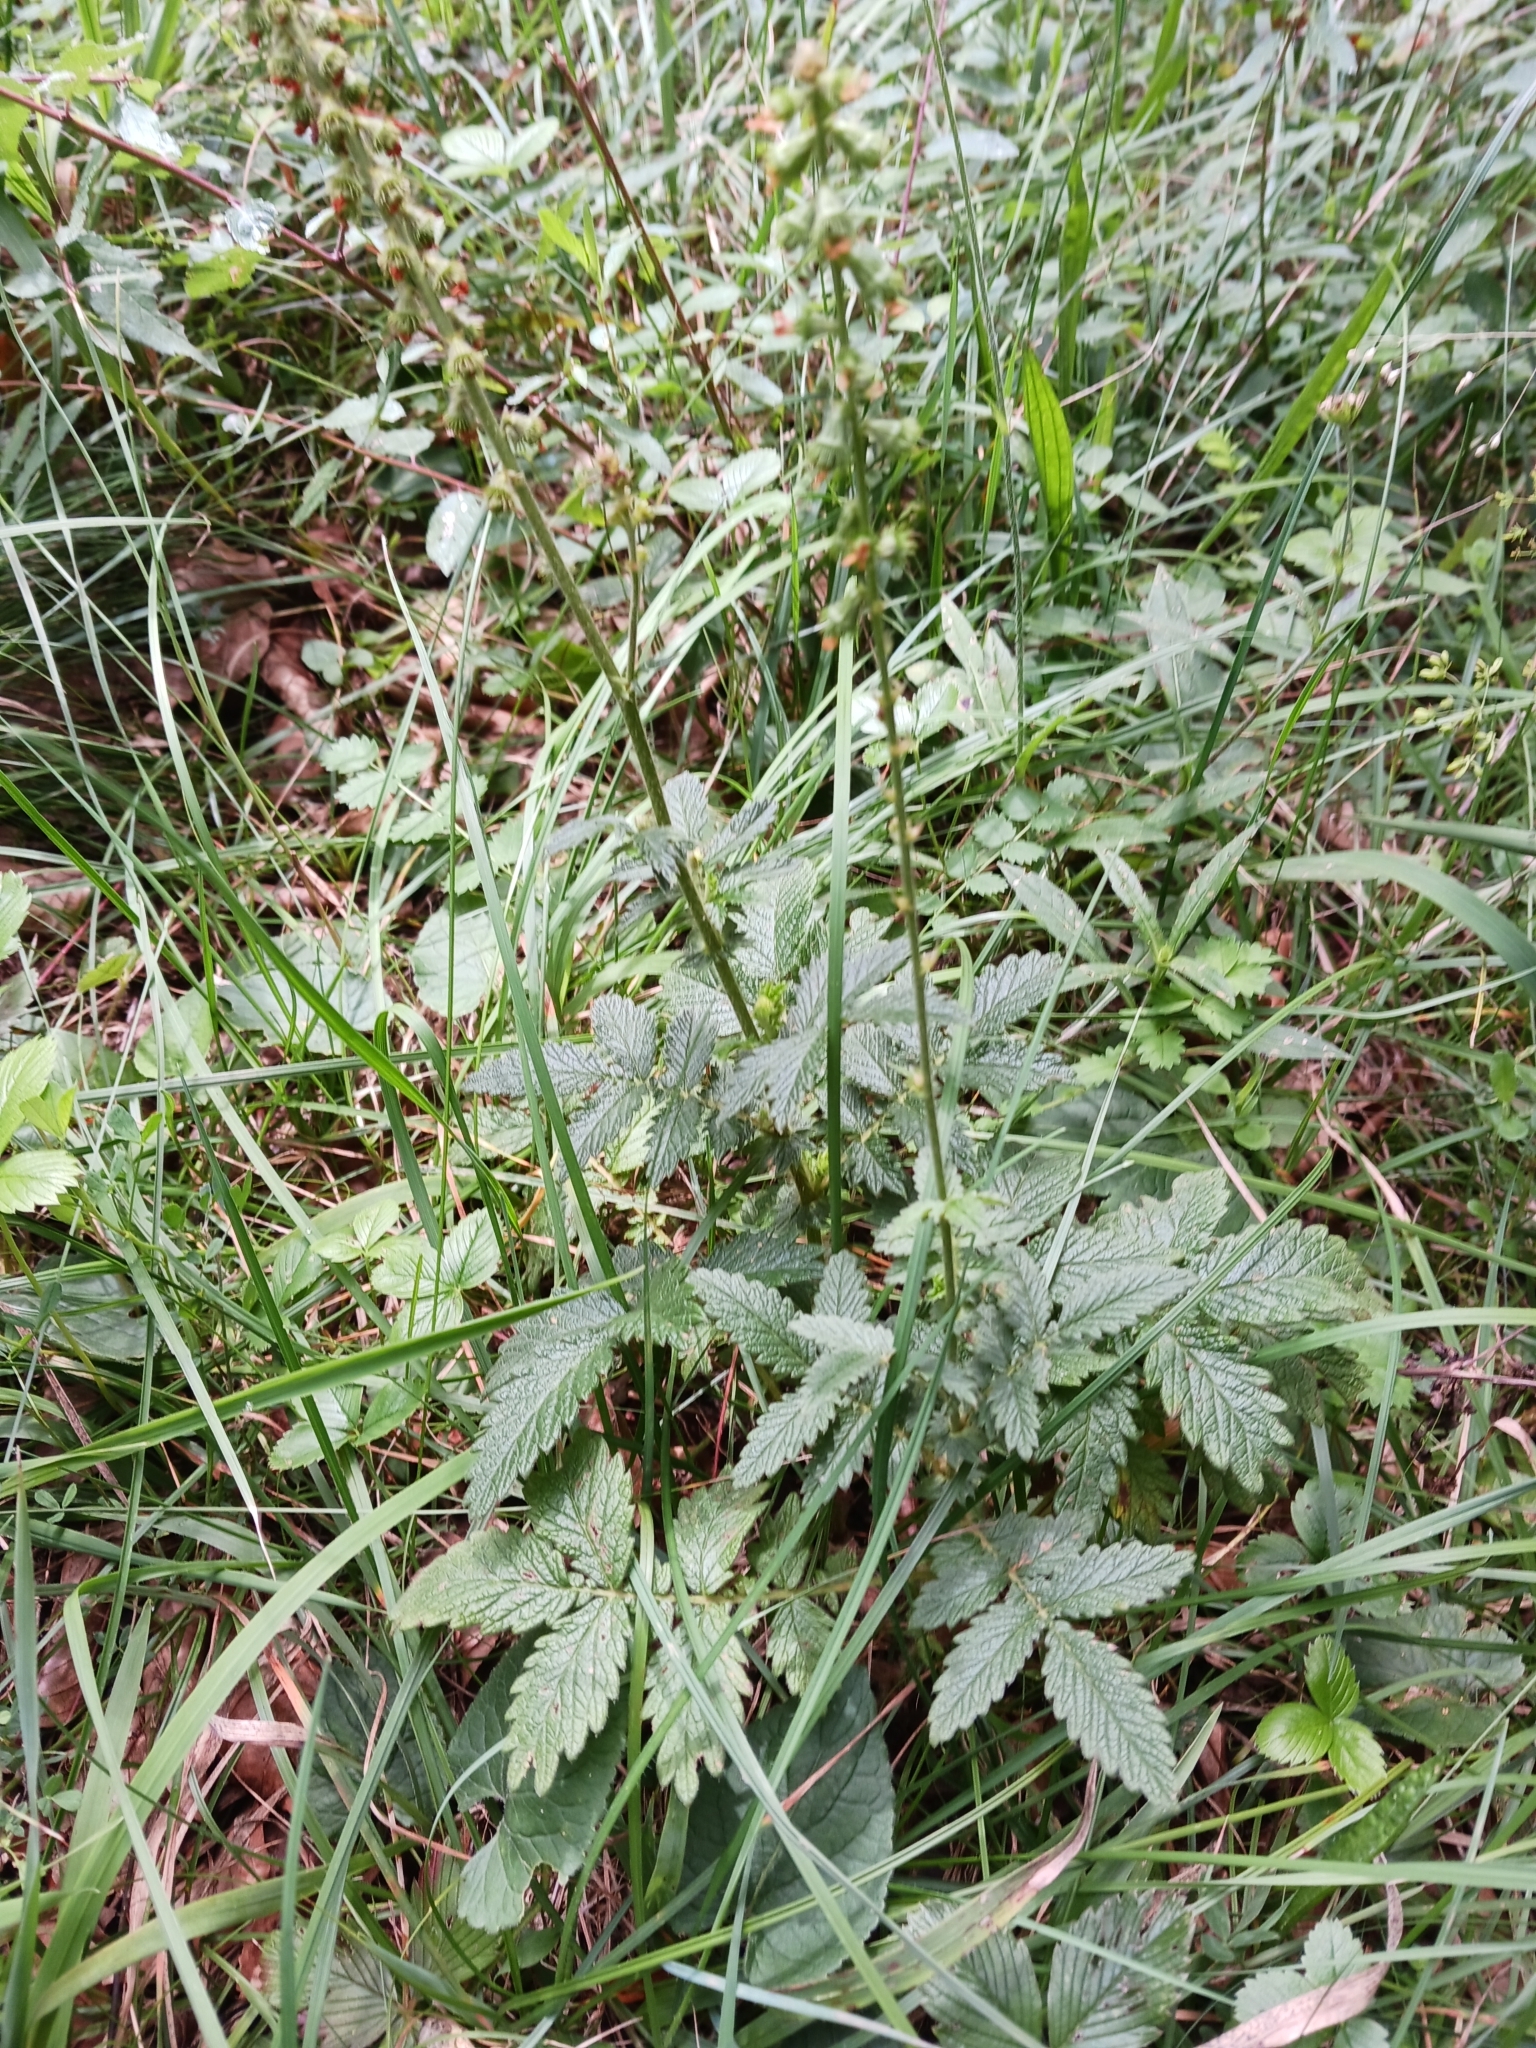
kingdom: Plantae
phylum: Tracheophyta
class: Magnoliopsida
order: Rosales
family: Rosaceae
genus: Agrimonia
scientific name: Agrimonia eupatoria
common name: Agrimony
